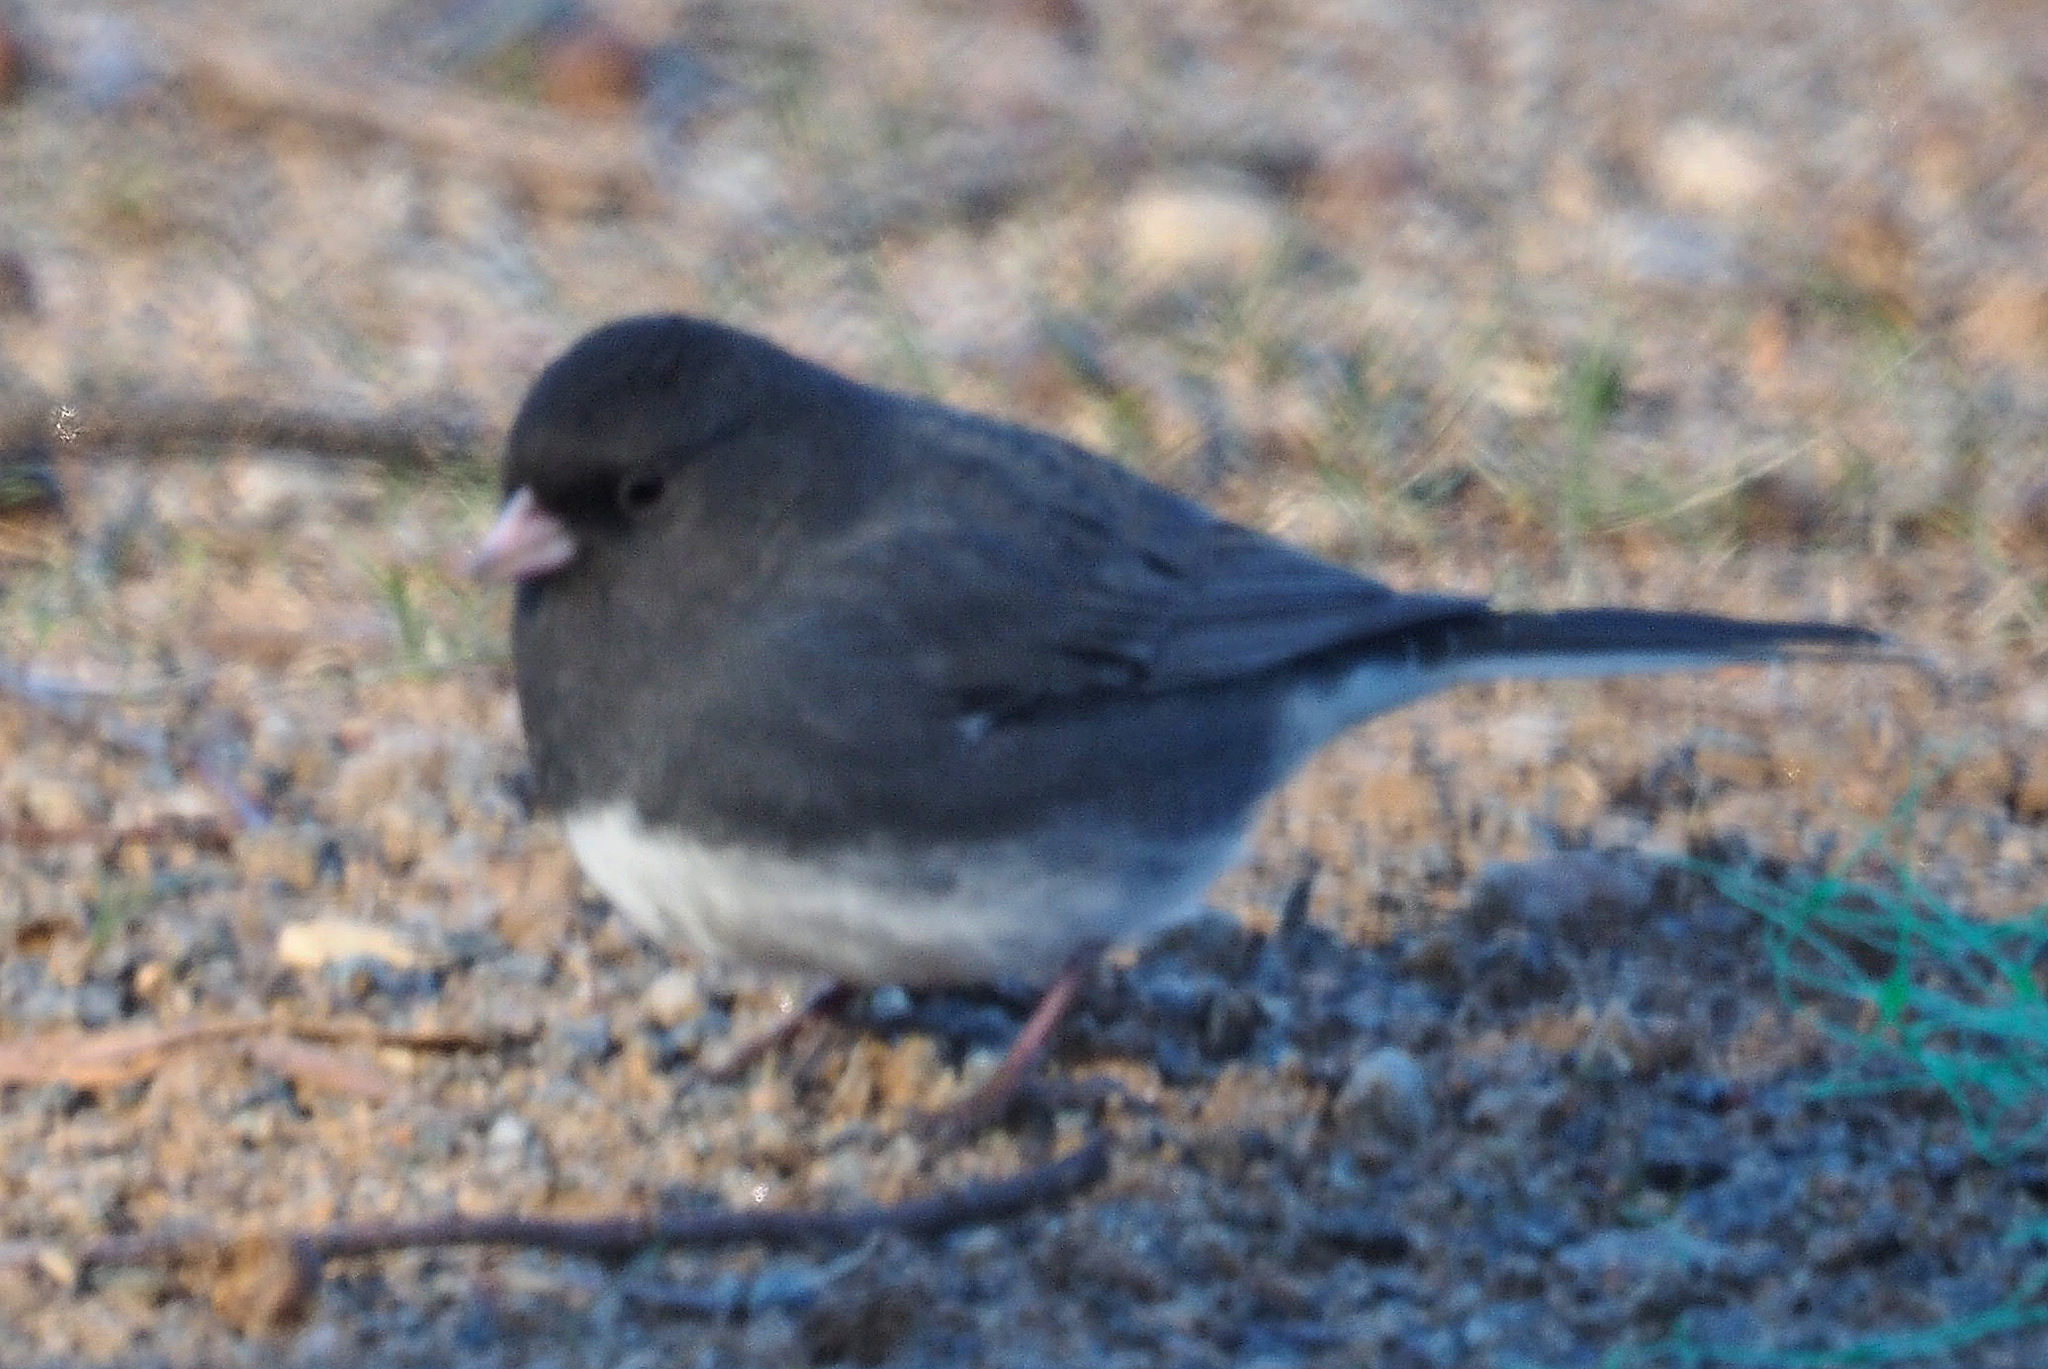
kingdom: Animalia
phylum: Chordata
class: Aves
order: Passeriformes
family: Passerellidae
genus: Junco
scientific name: Junco hyemalis
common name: Dark-eyed junco
